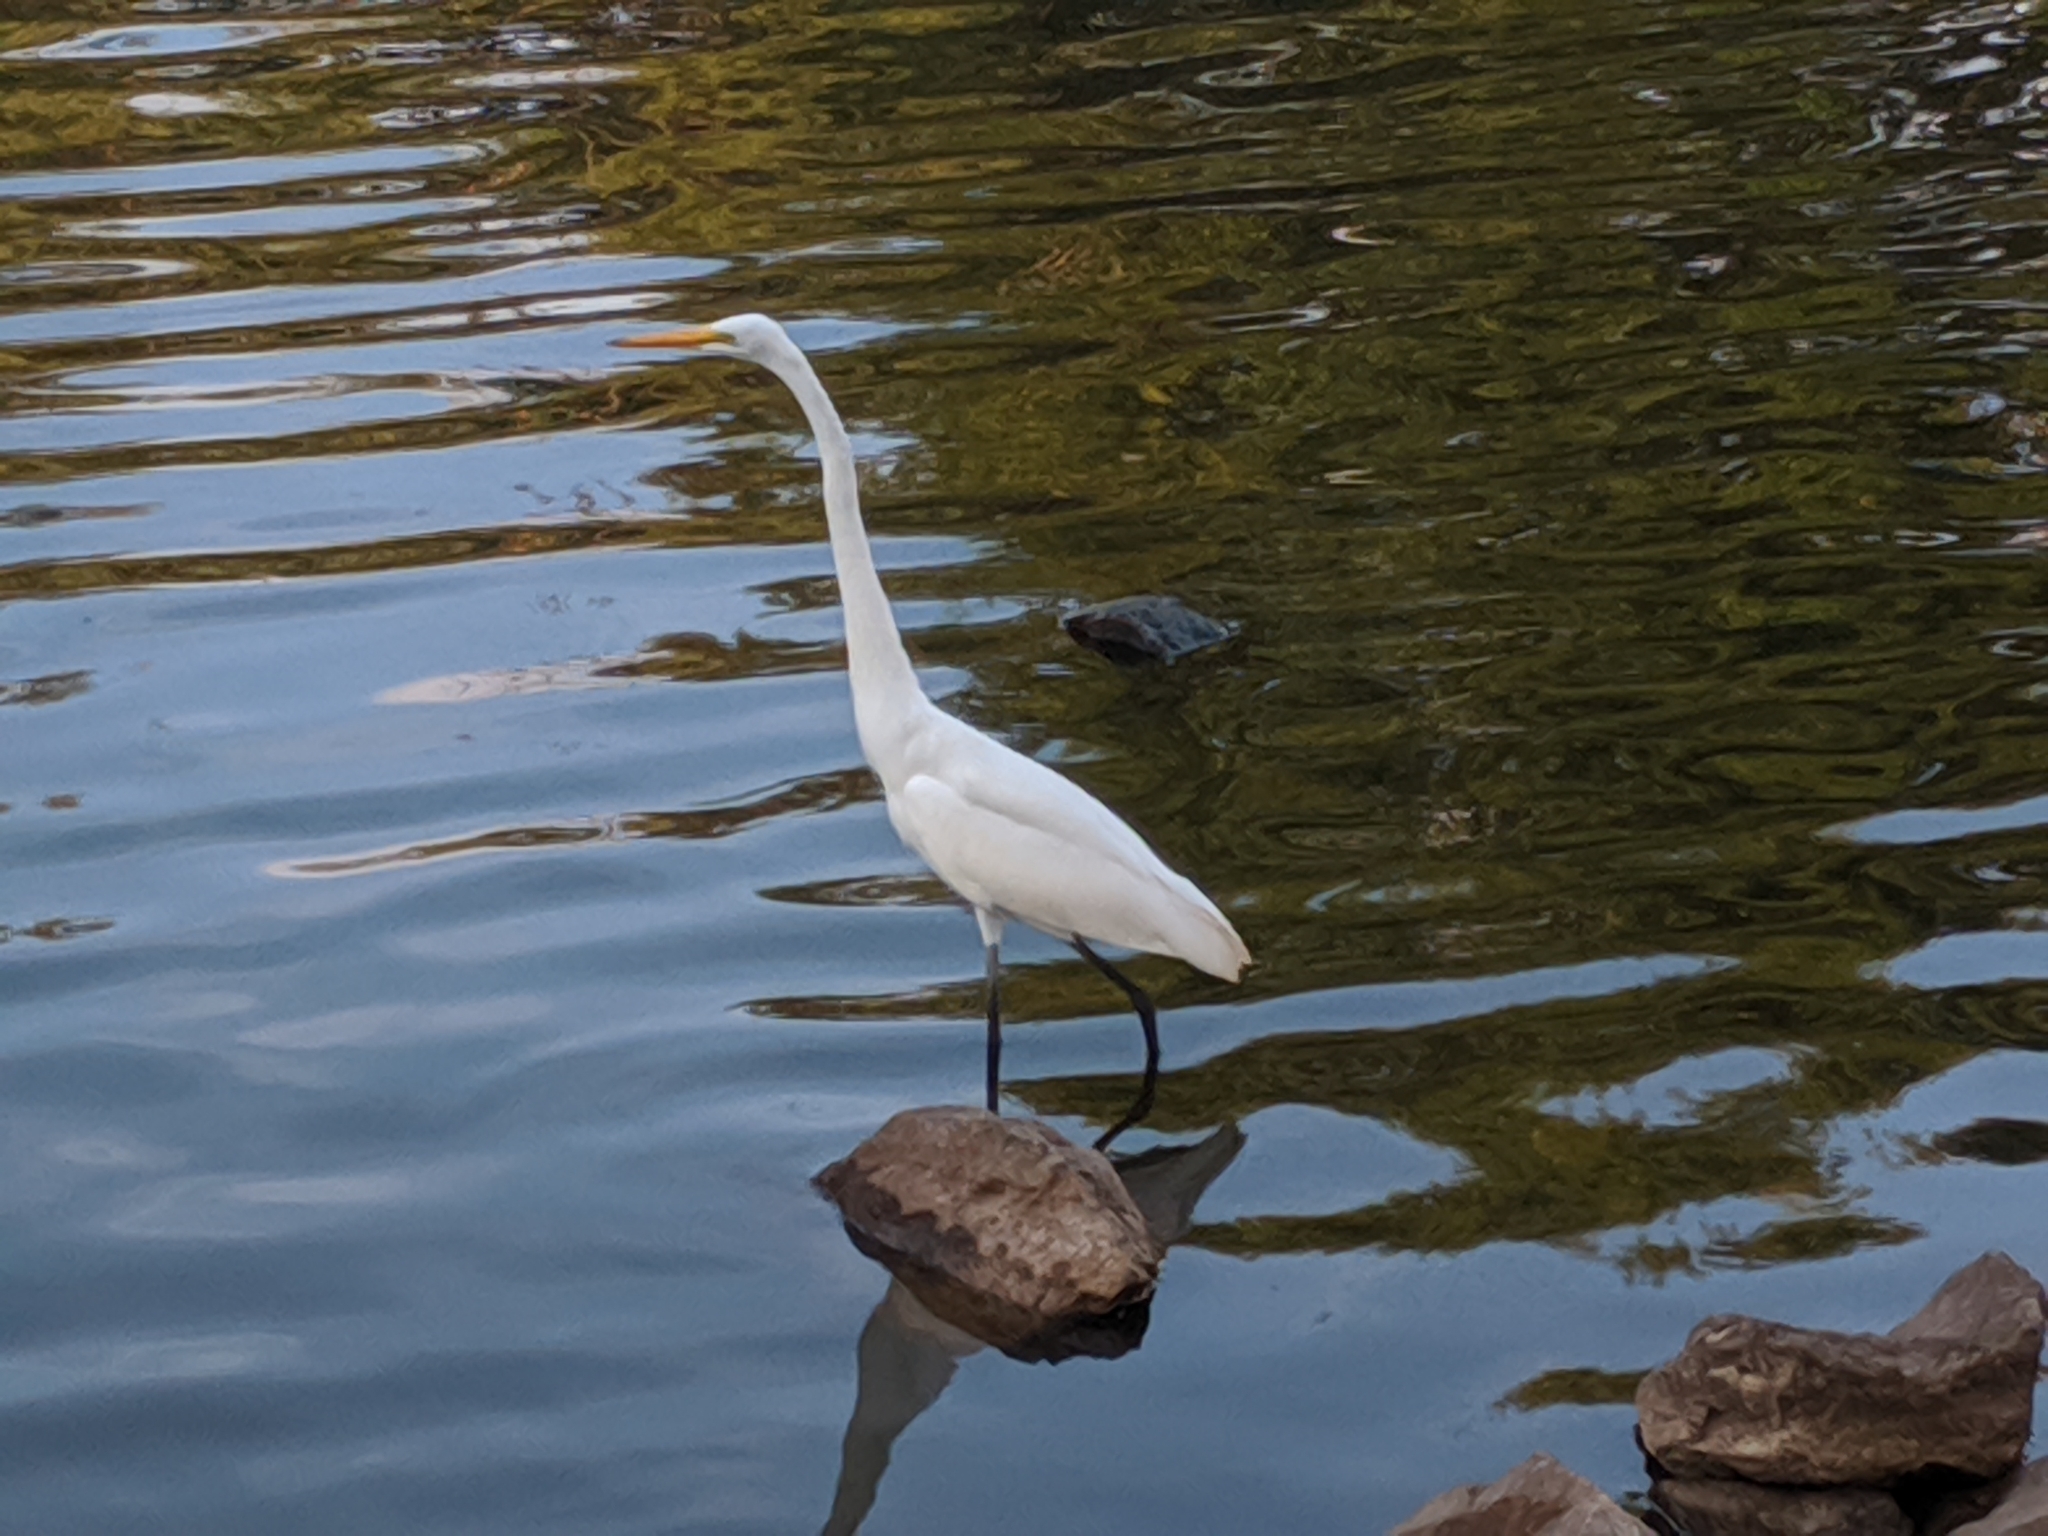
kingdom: Animalia
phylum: Chordata
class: Aves
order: Pelecaniformes
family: Ardeidae
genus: Ardea
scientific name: Ardea alba
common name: Great egret
